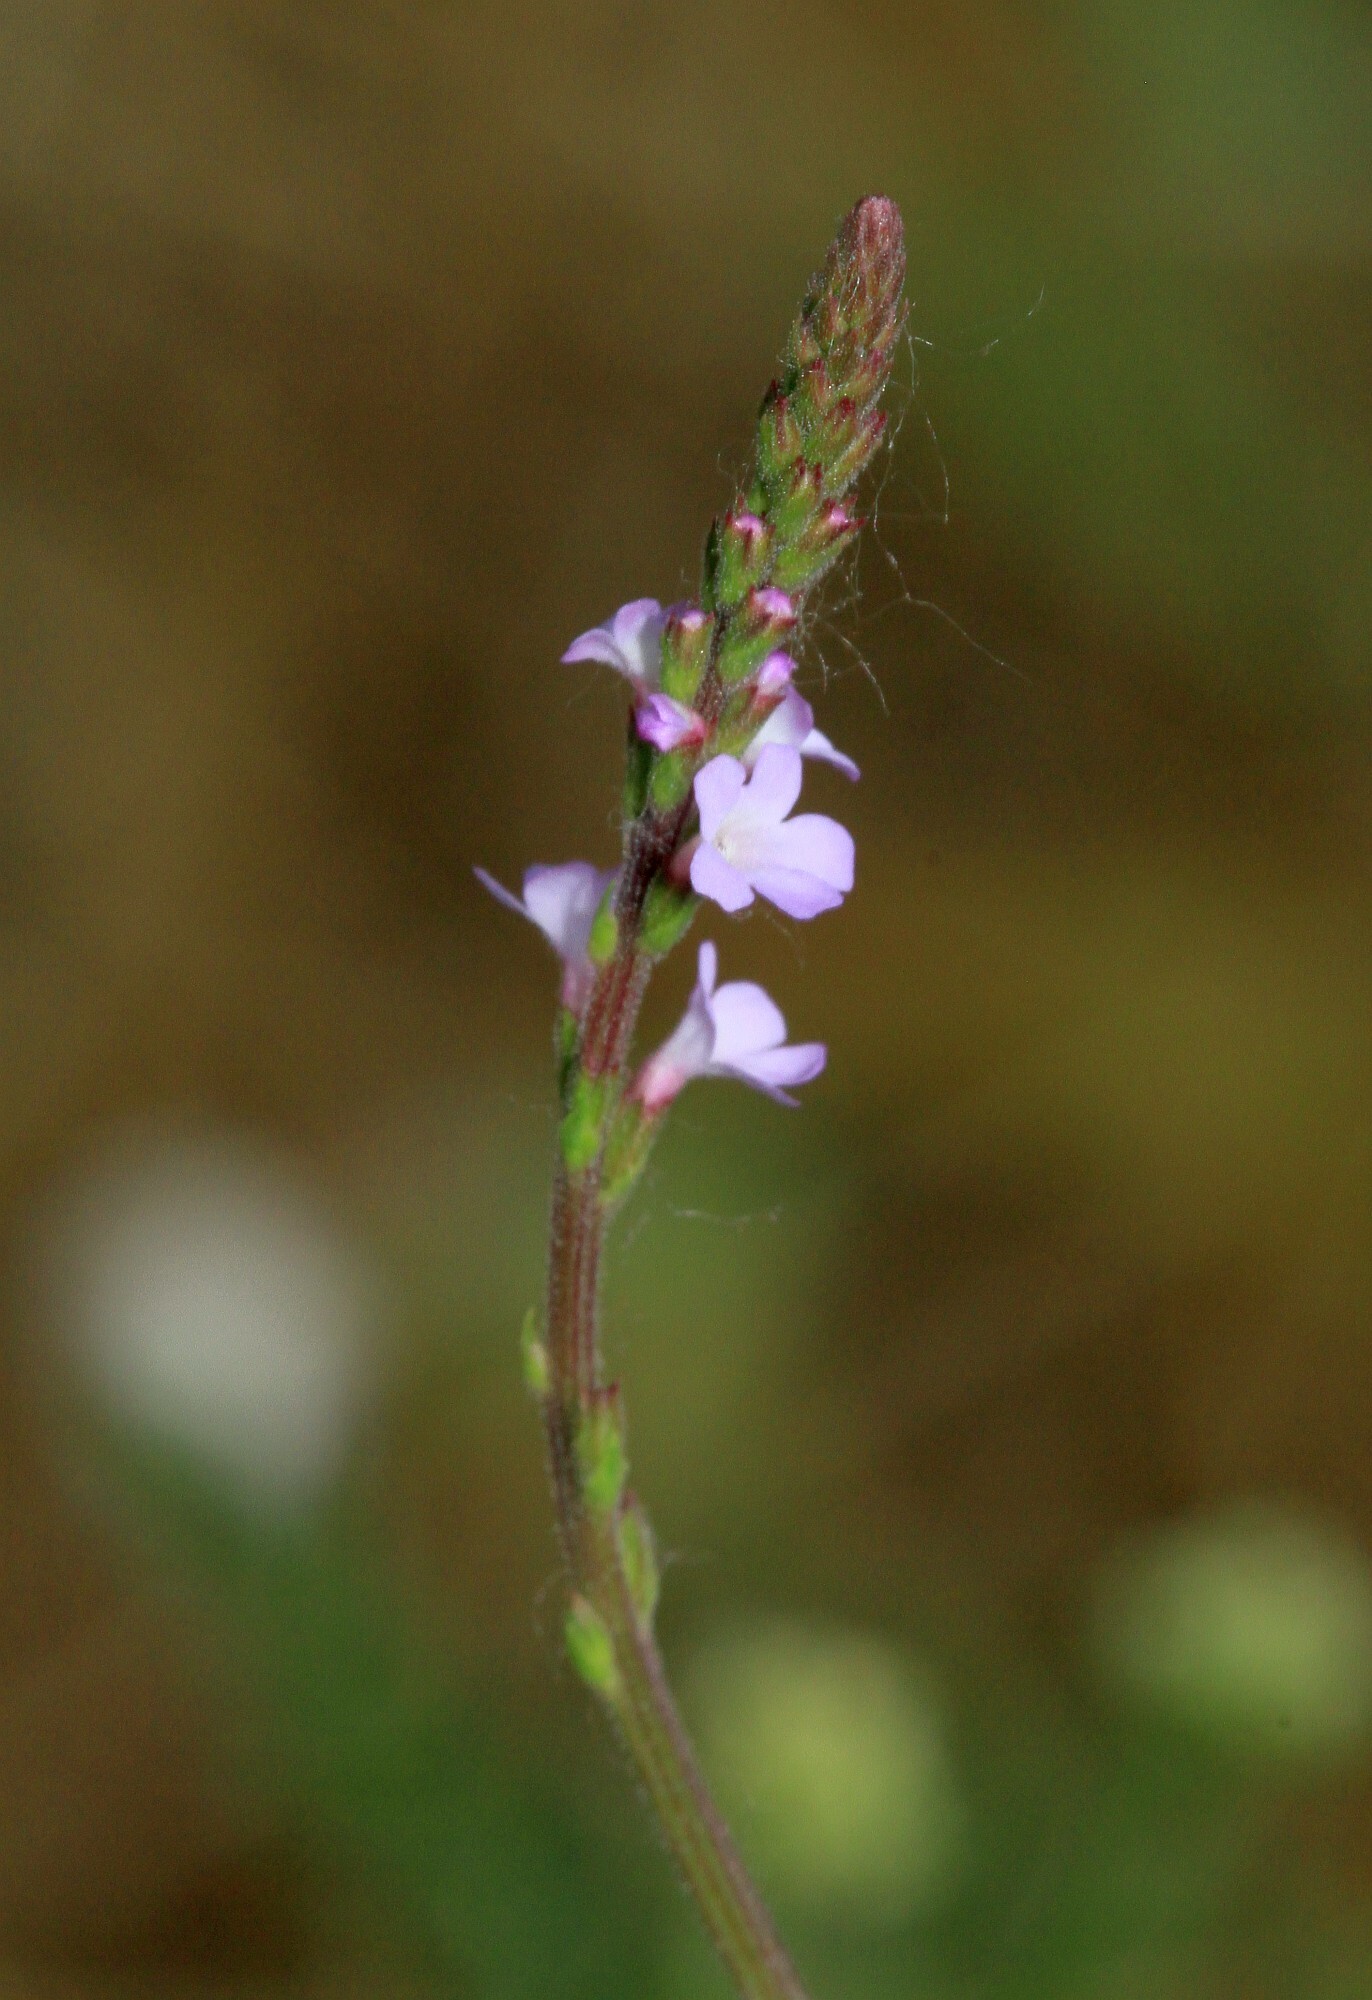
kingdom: Plantae
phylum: Tracheophyta
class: Magnoliopsida
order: Lamiales
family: Verbenaceae
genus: Verbena
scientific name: Verbena officinalis
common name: Vervain
